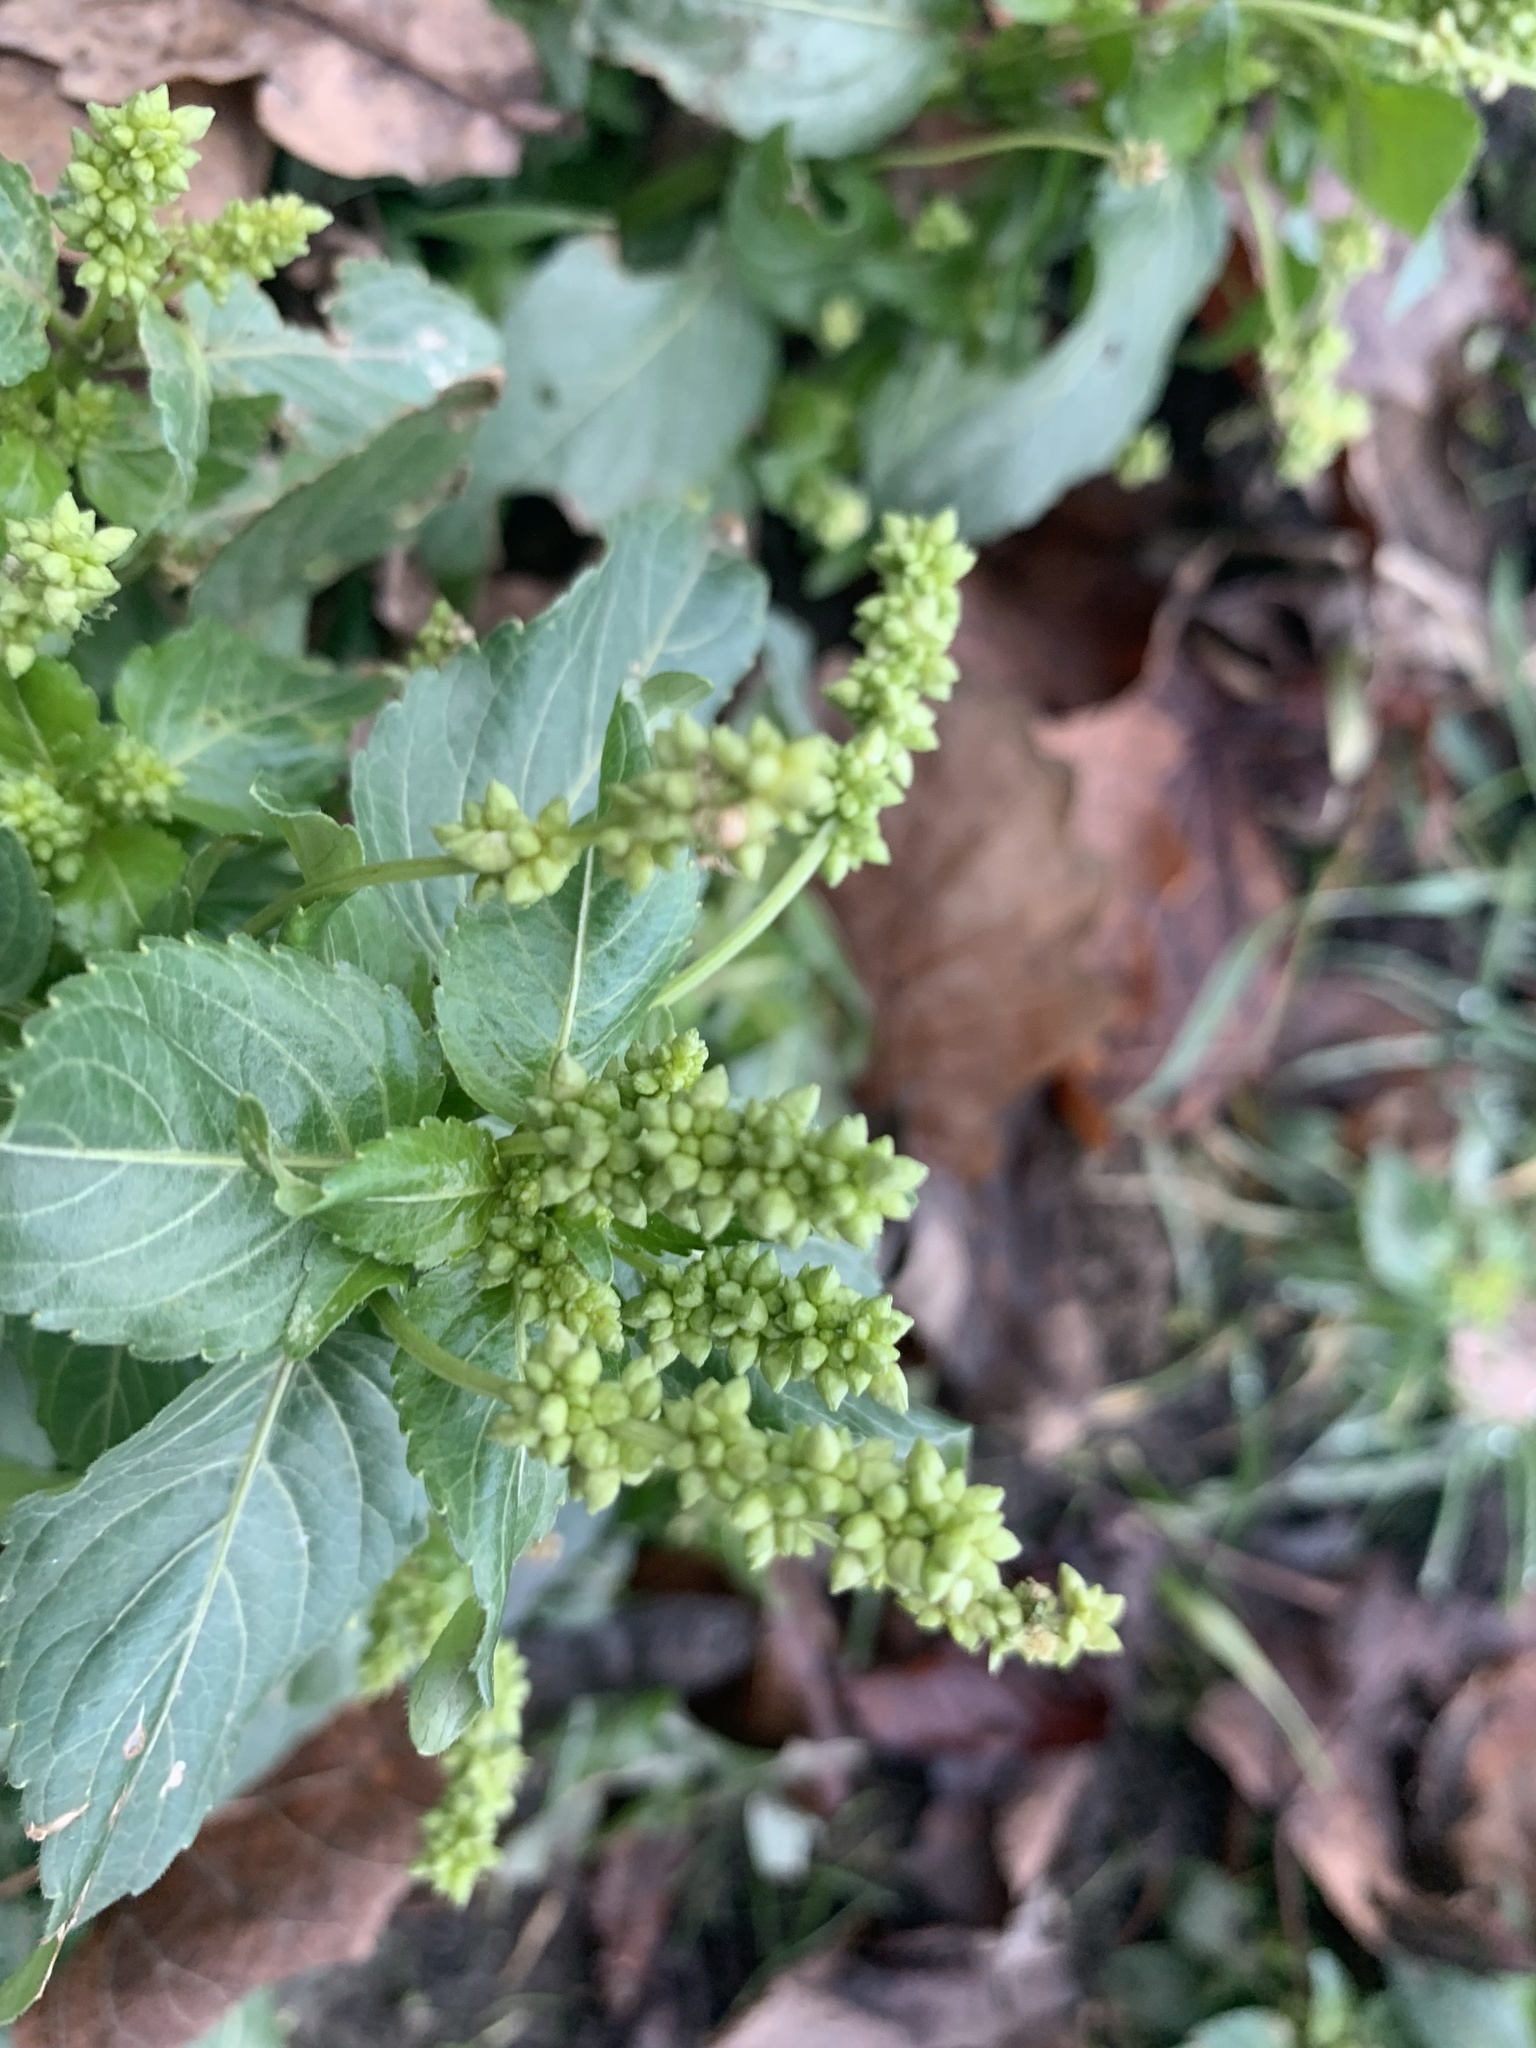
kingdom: Plantae
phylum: Tracheophyta
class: Magnoliopsida
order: Malpighiales
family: Euphorbiaceae
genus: Mercurialis
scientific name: Mercurialis annua
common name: Annual mercury
